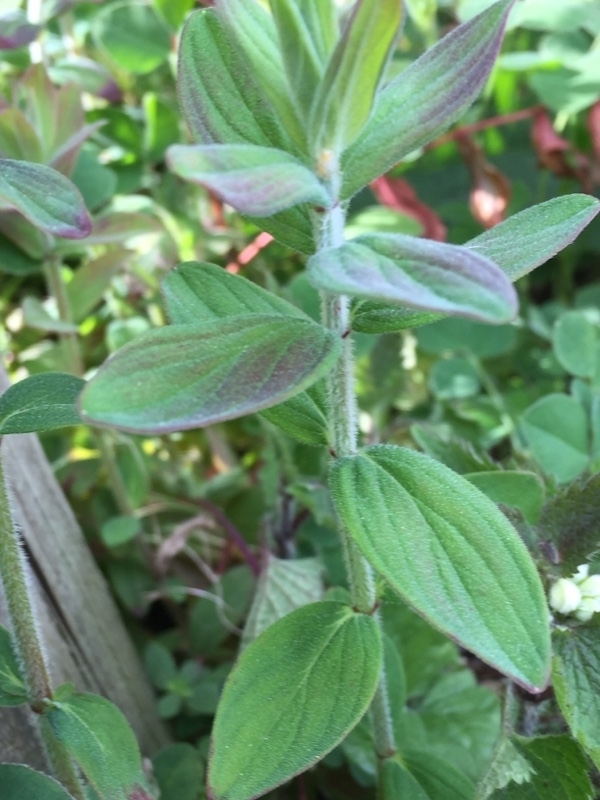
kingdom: Plantae
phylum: Tracheophyta
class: Magnoliopsida
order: Malpighiales
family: Hypericaceae
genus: Hypericum
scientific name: Hypericum hirsutum
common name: Hairy st. john's-wort
